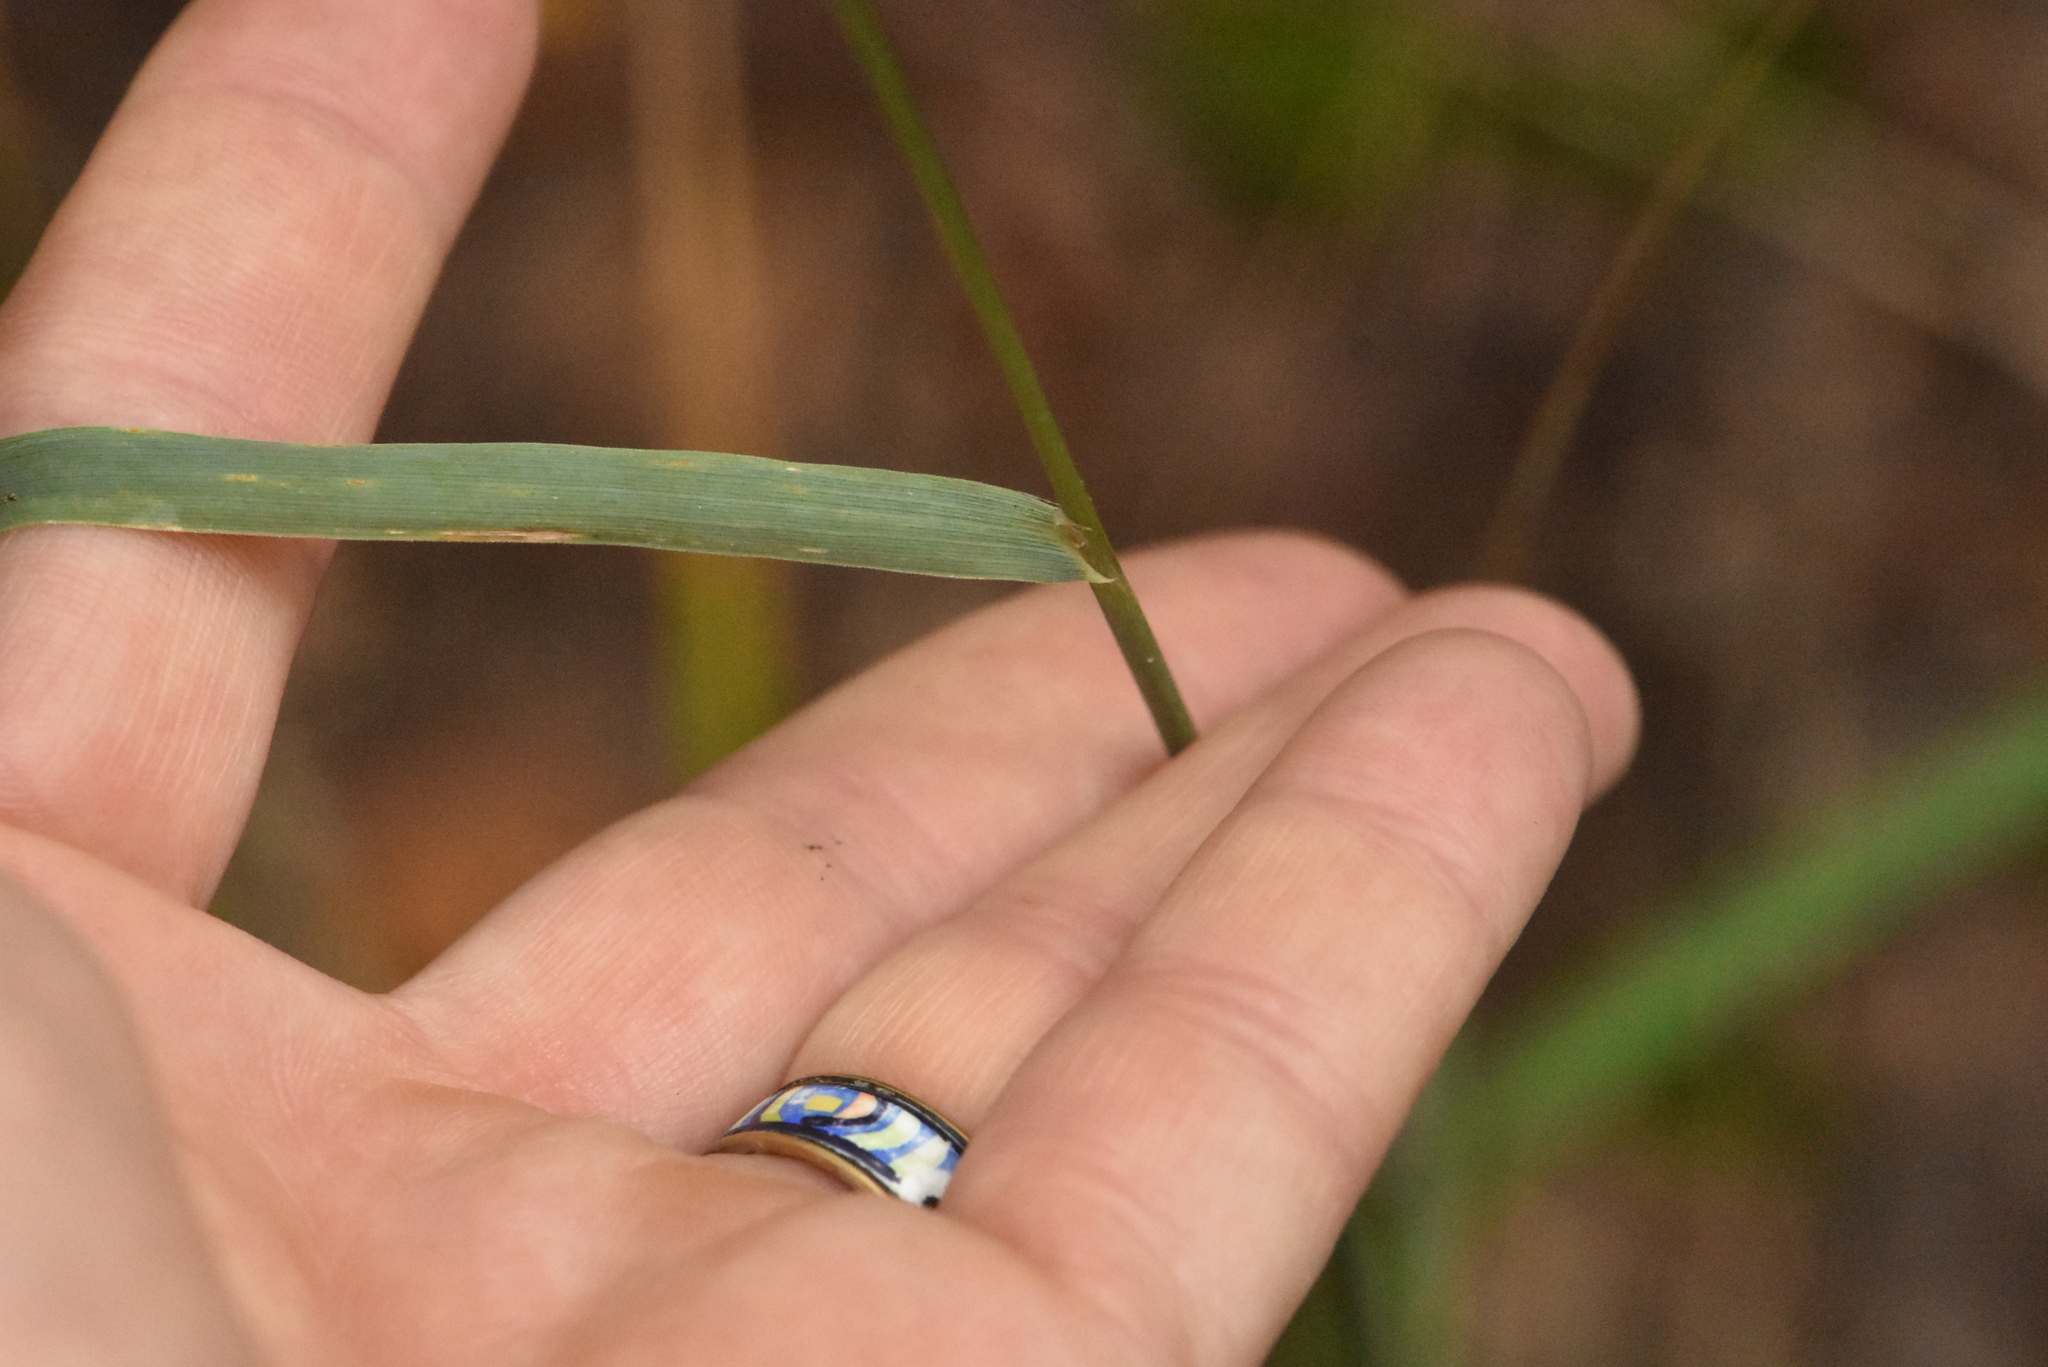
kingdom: Plantae
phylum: Tracheophyta
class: Liliopsida
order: Poales
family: Poaceae
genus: Calamagrostis
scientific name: Calamagrostis epigejos
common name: Wood small-reed
